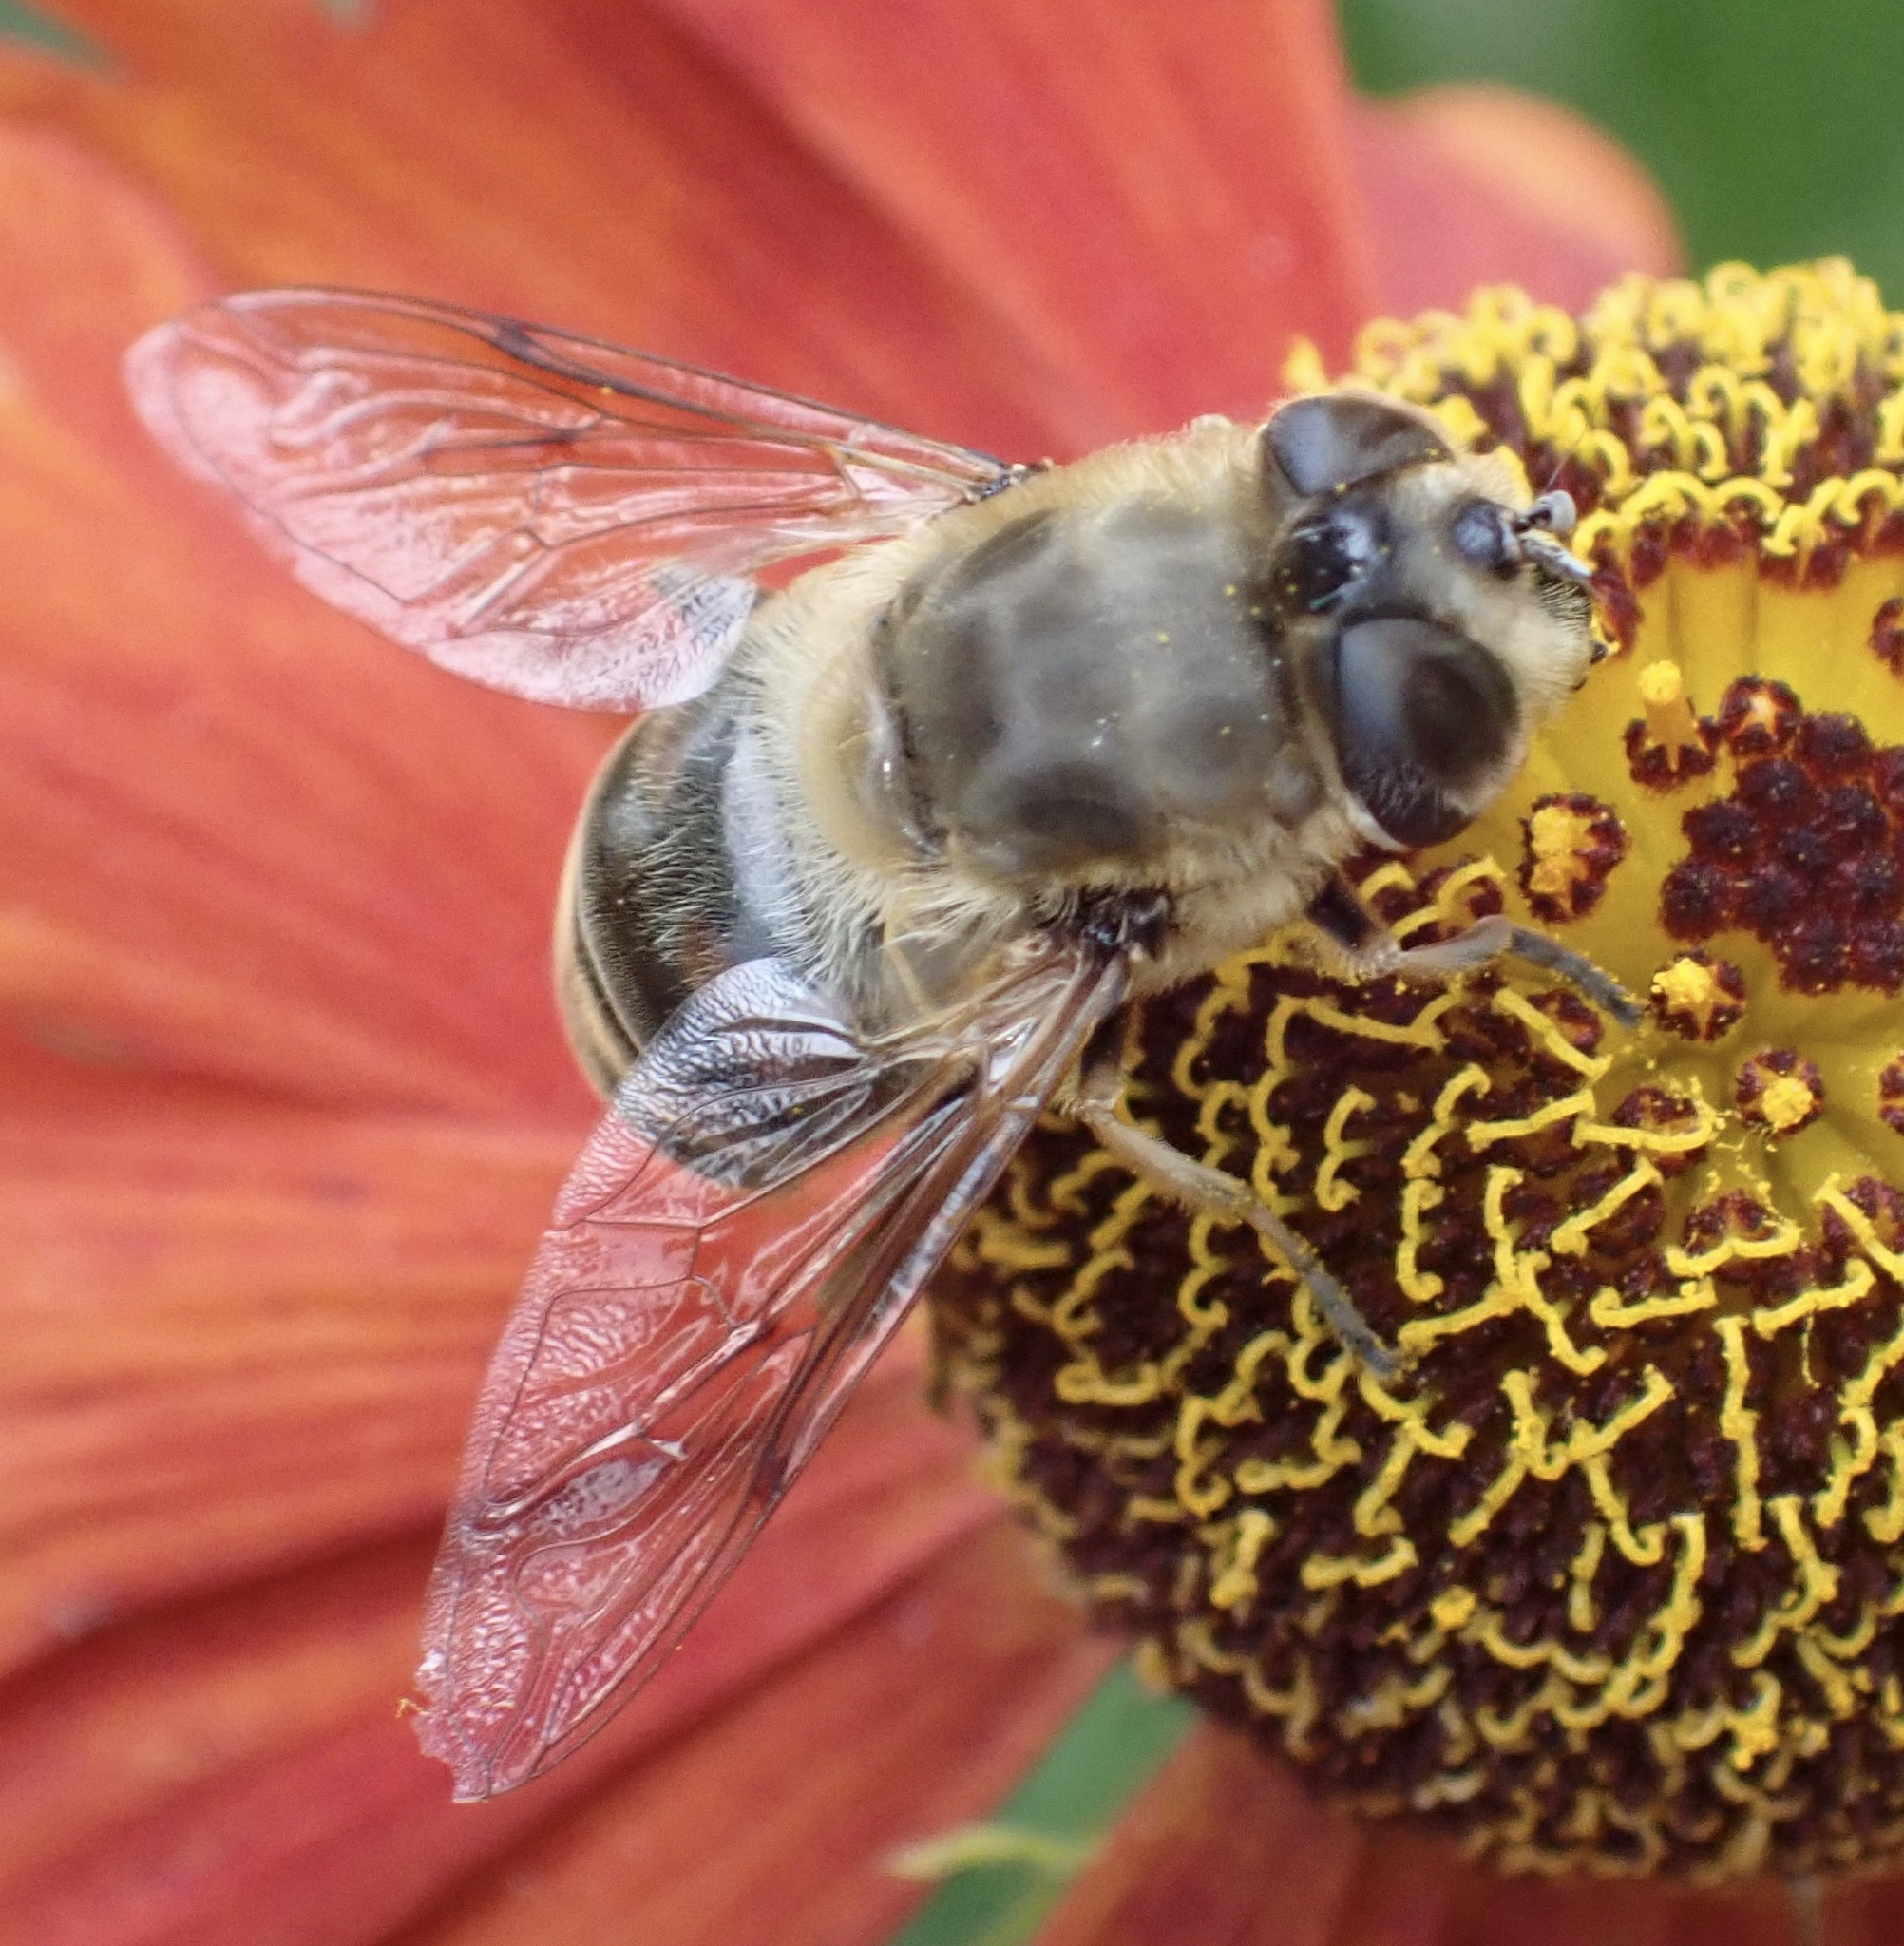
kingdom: Animalia
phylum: Arthropoda
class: Insecta
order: Diptera
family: Syrphidae
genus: Eristalis
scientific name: Eristalis tenax
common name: Drone fly
